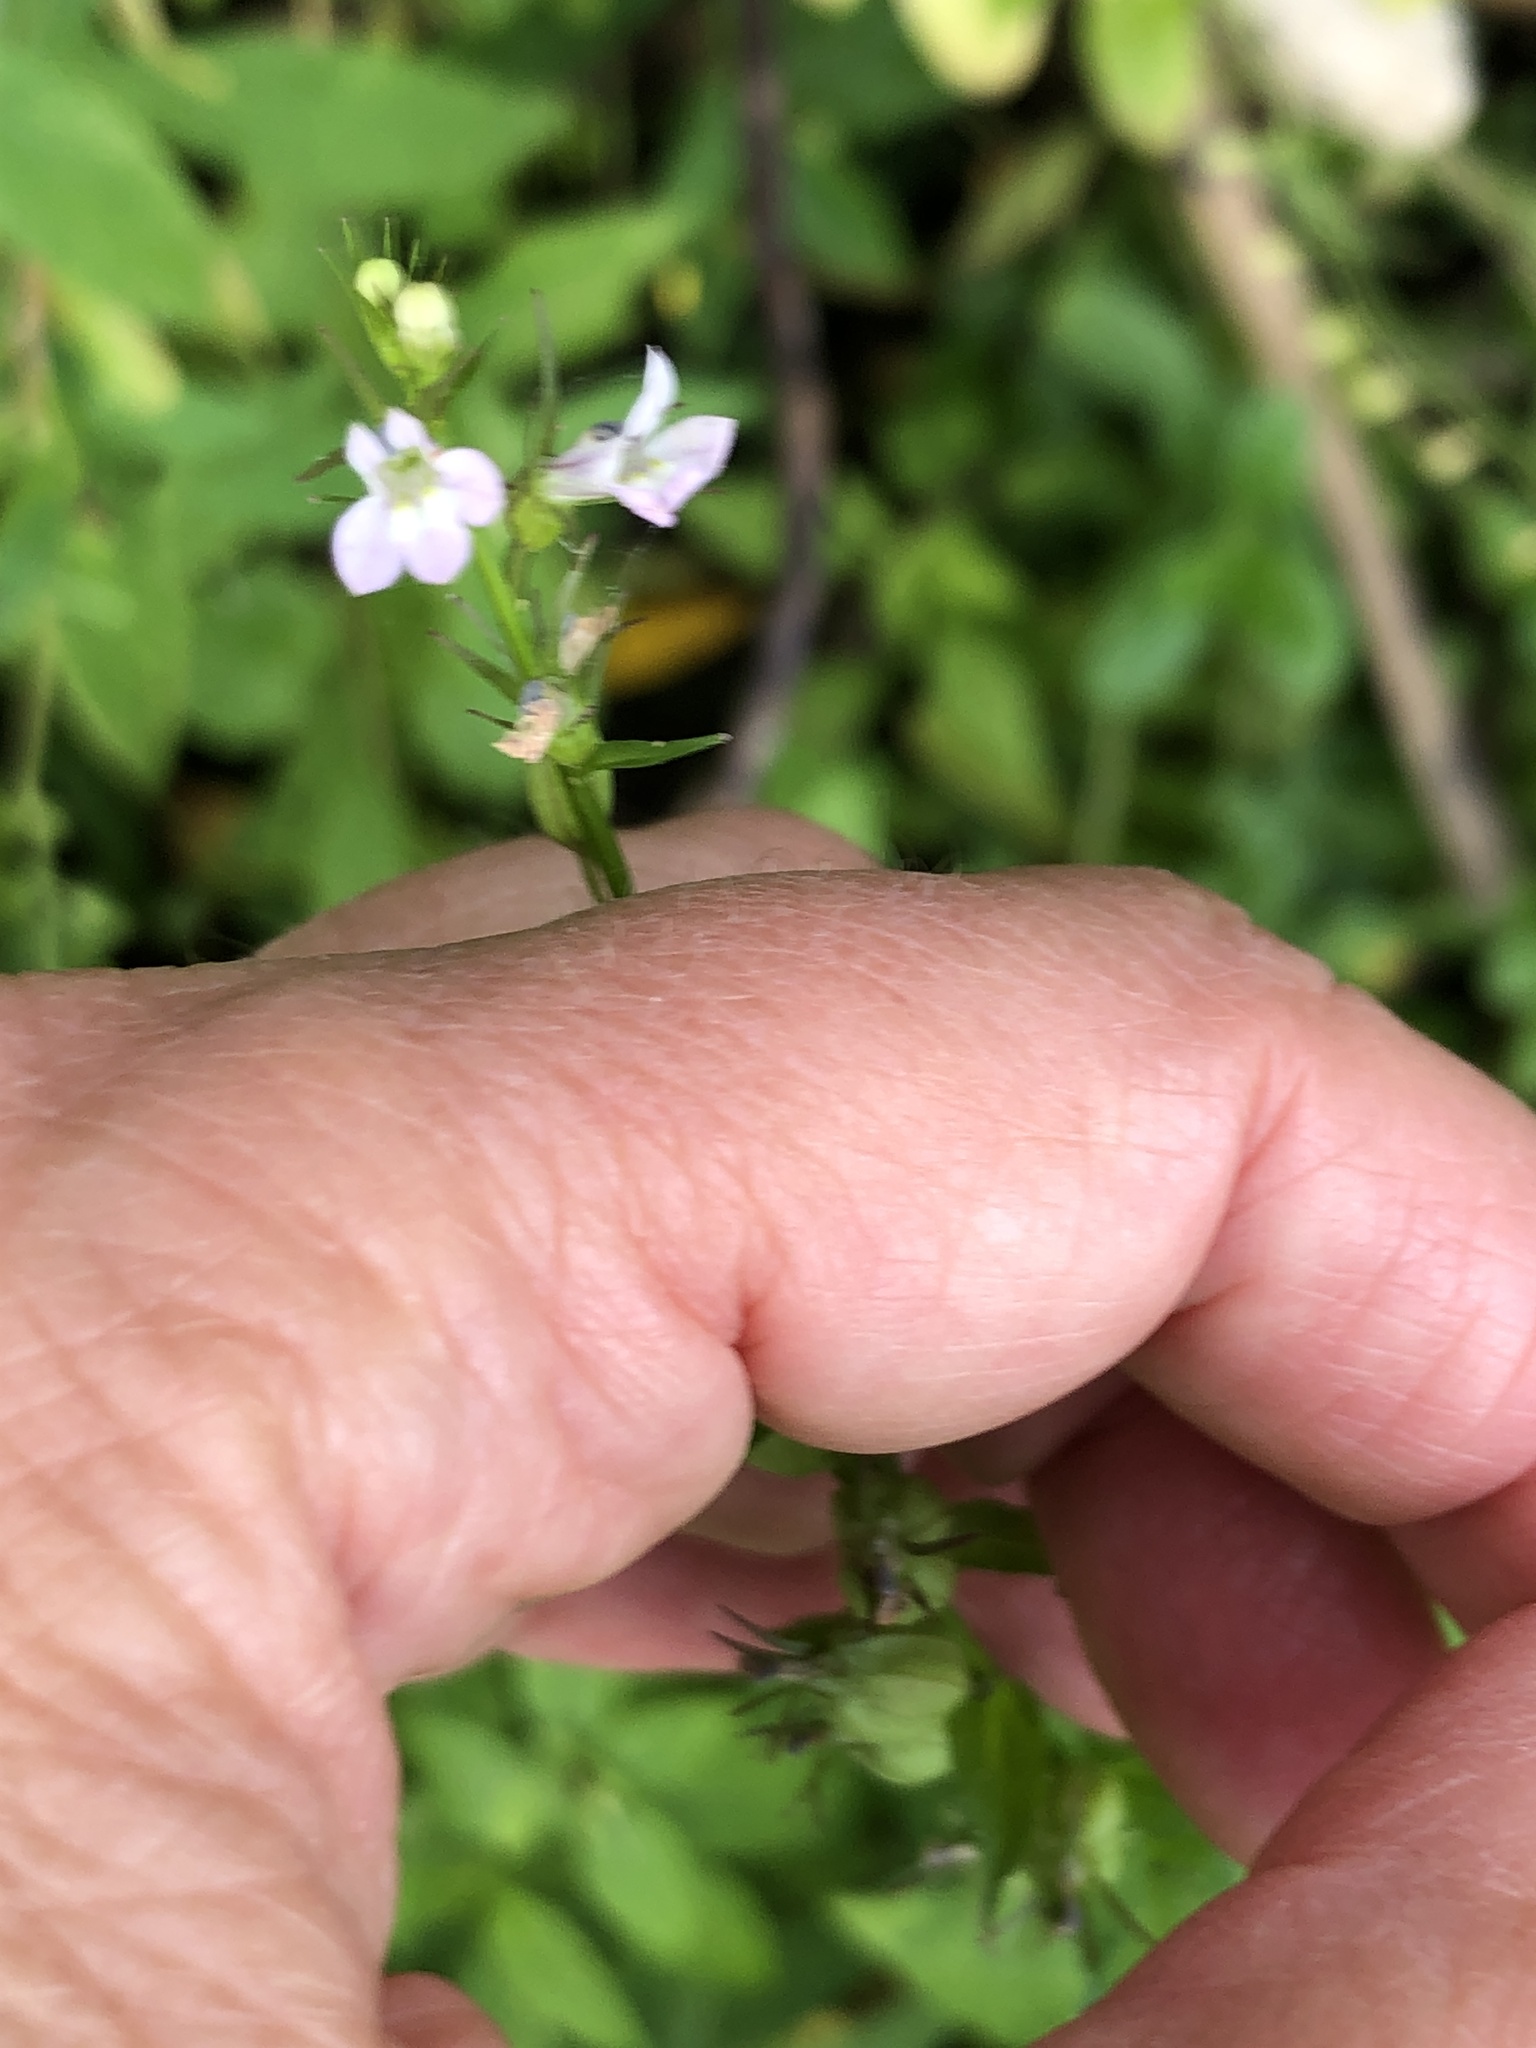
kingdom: Plantae
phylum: Tracheophyta
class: Magnoliopsida
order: Asterales
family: Campanulaceae
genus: Lobelia
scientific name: Lobelia inflata
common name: Indian tobacco
